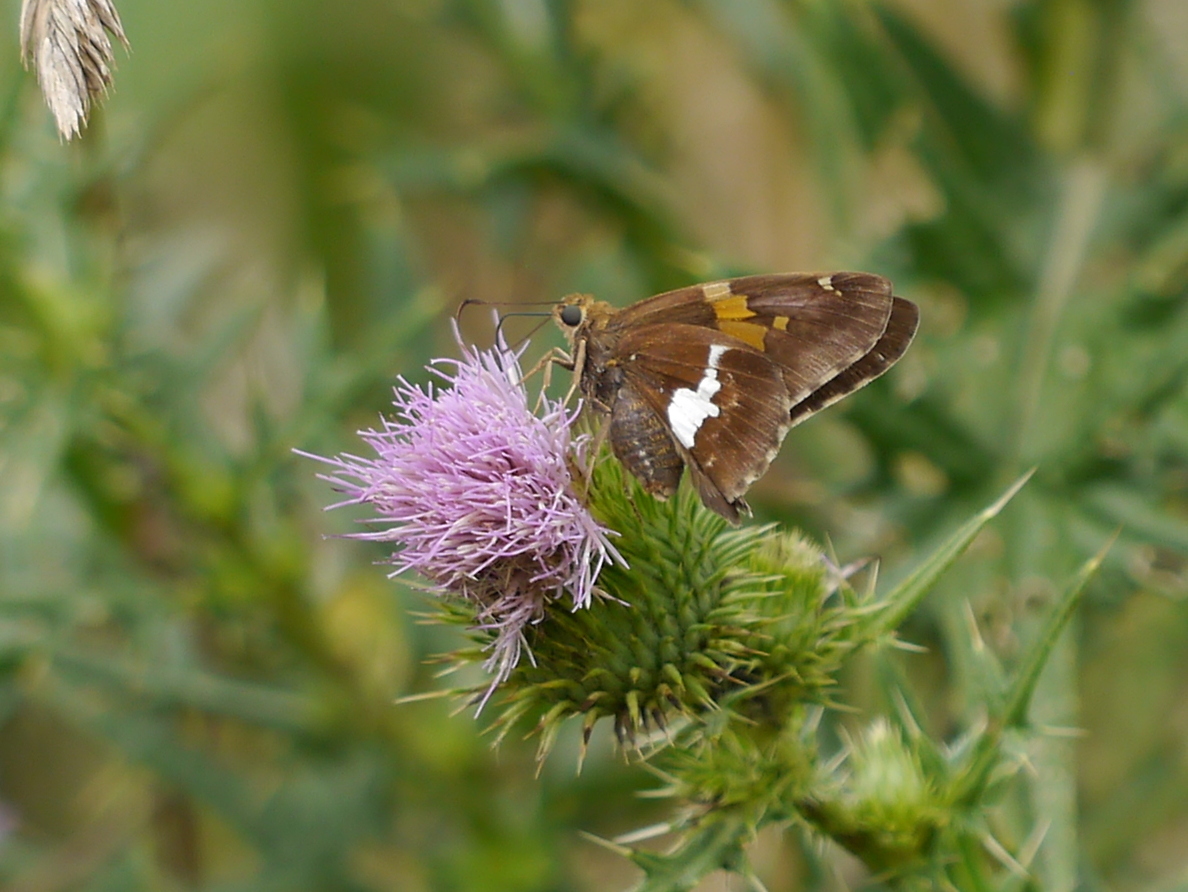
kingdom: Animalia
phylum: Arthropoda
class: Insecta
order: Lepidoptera
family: Hesperiidae
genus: Epargyreus
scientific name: Epargyreus clarus
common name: Silver-spotted skipper
